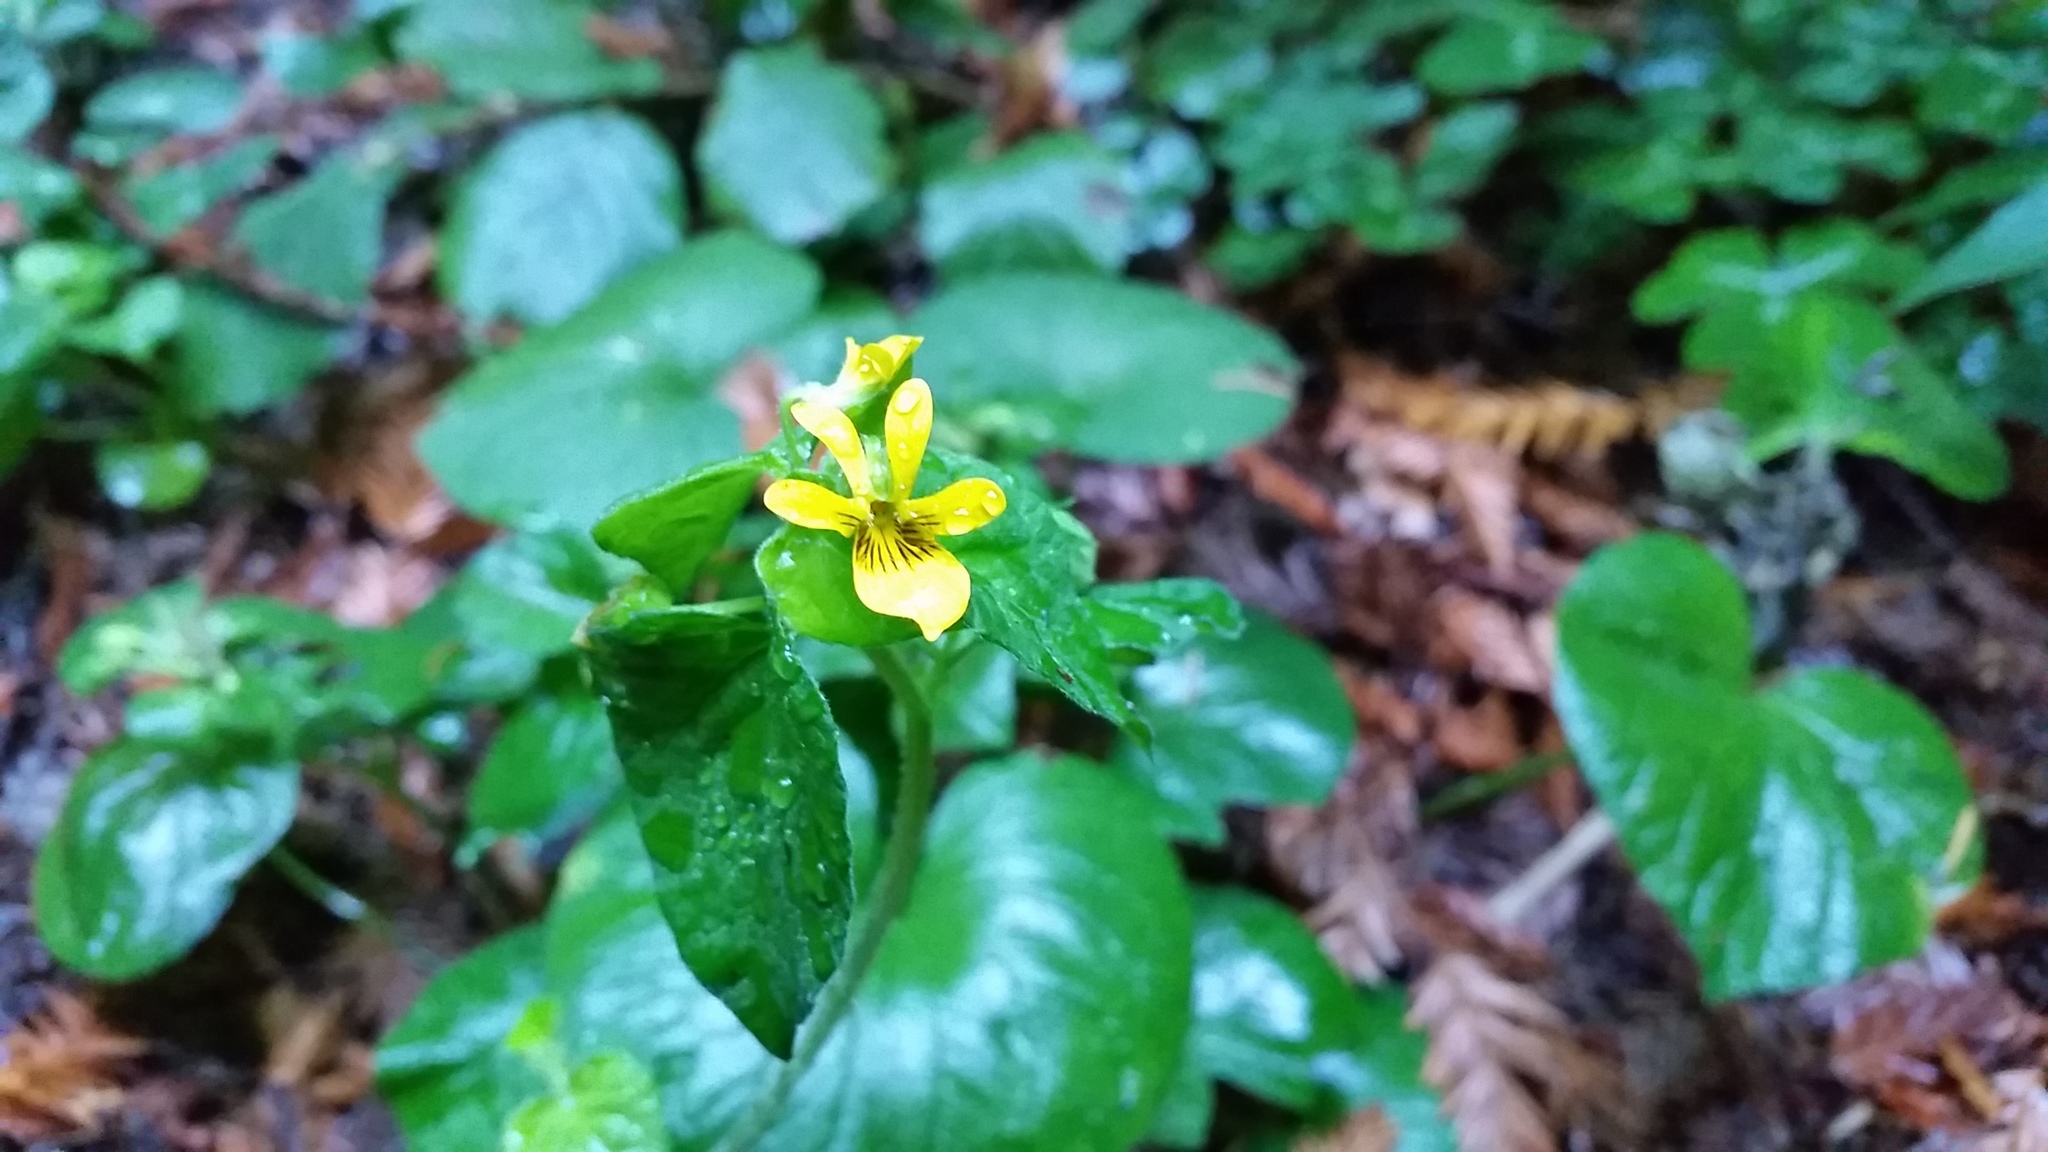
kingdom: Plantae
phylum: Tracheophyta
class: Magnoliopsida
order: Malpighiales
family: Violaceae
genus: Viola
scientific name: Viola glabella
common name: Stream violet
